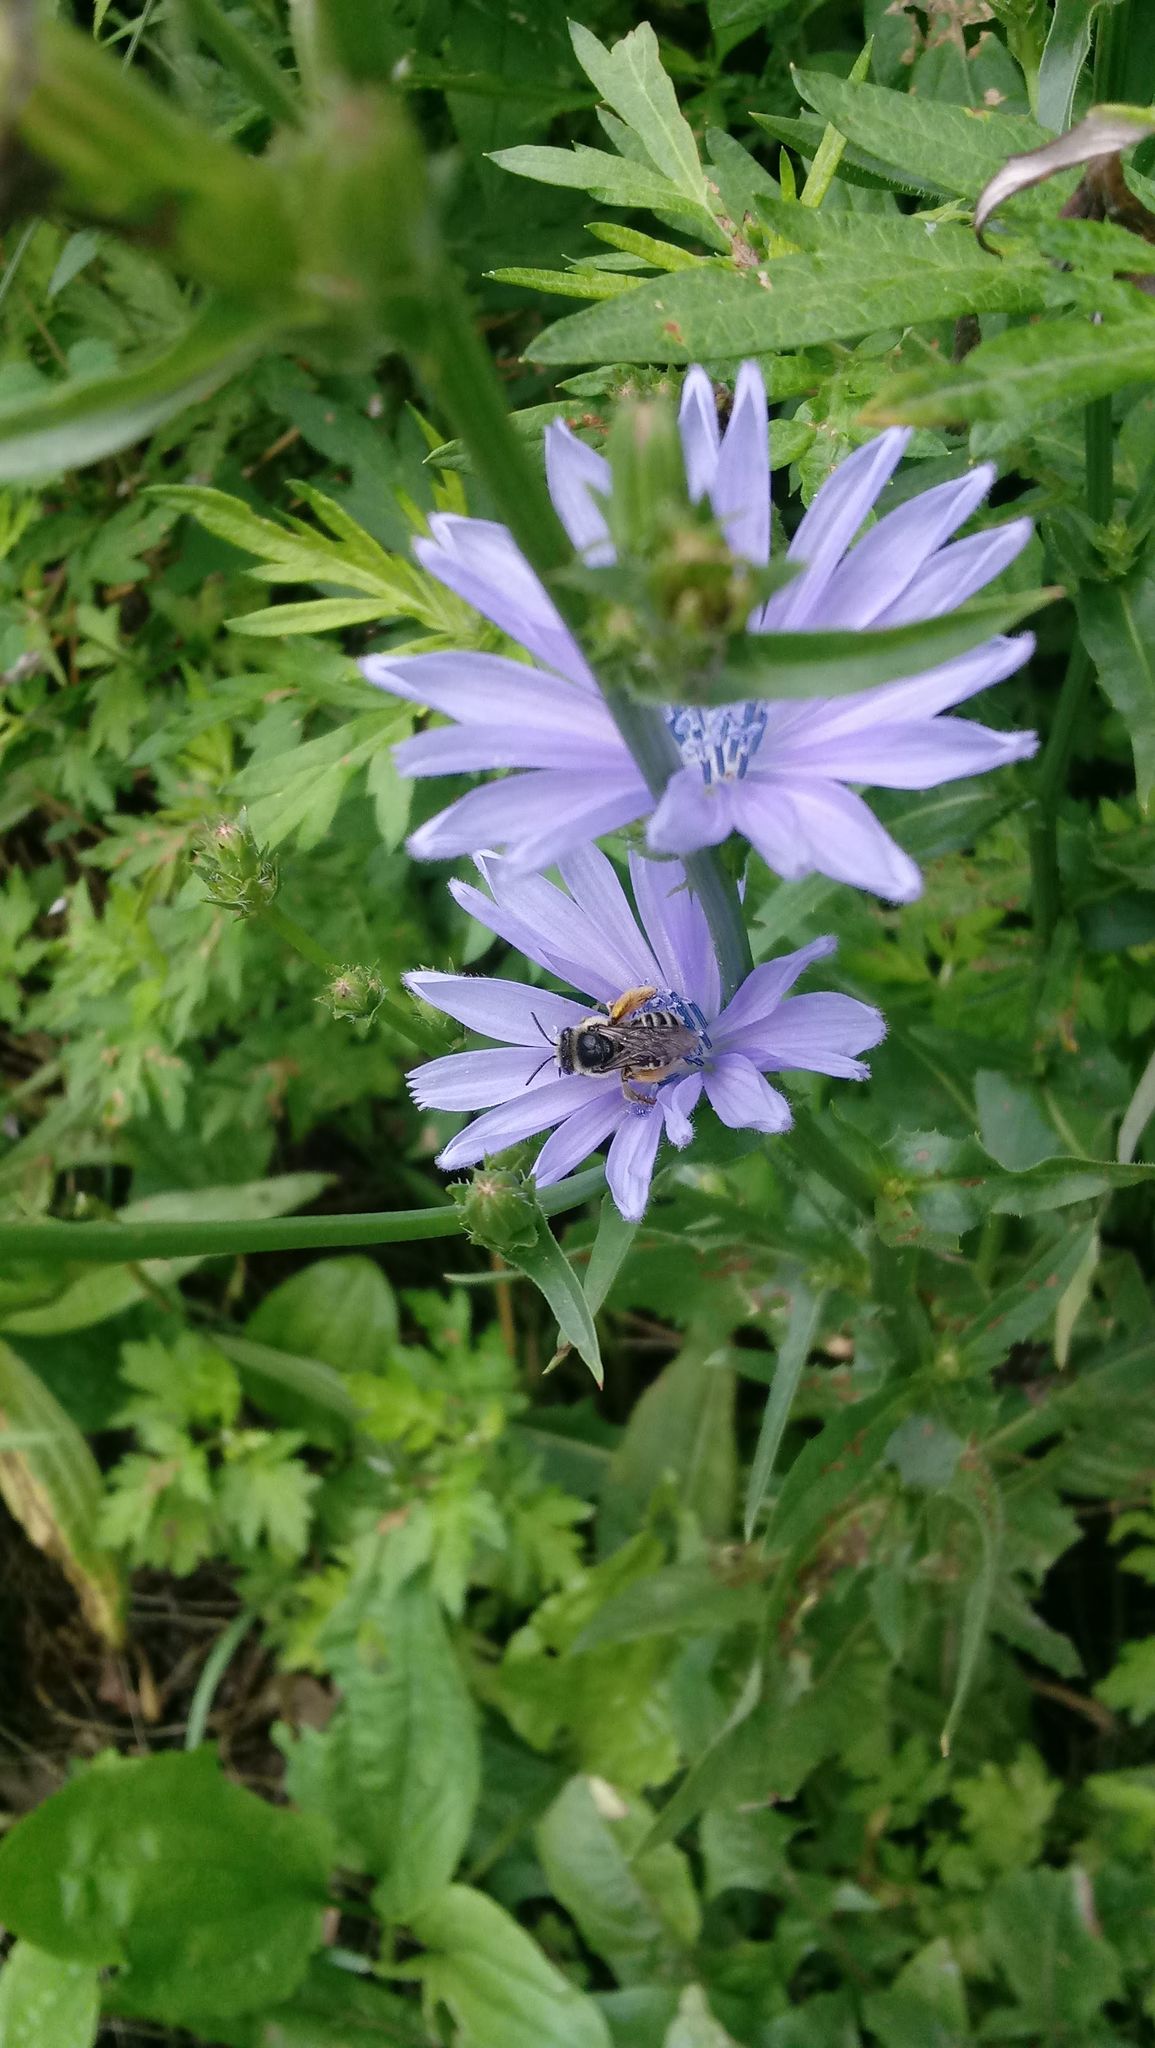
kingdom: Plantae
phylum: Tracheophyta
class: Magnoliopsida
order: Asterales
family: Asteraceae
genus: Cichorium
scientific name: Cichorium intybus
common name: Chicory
